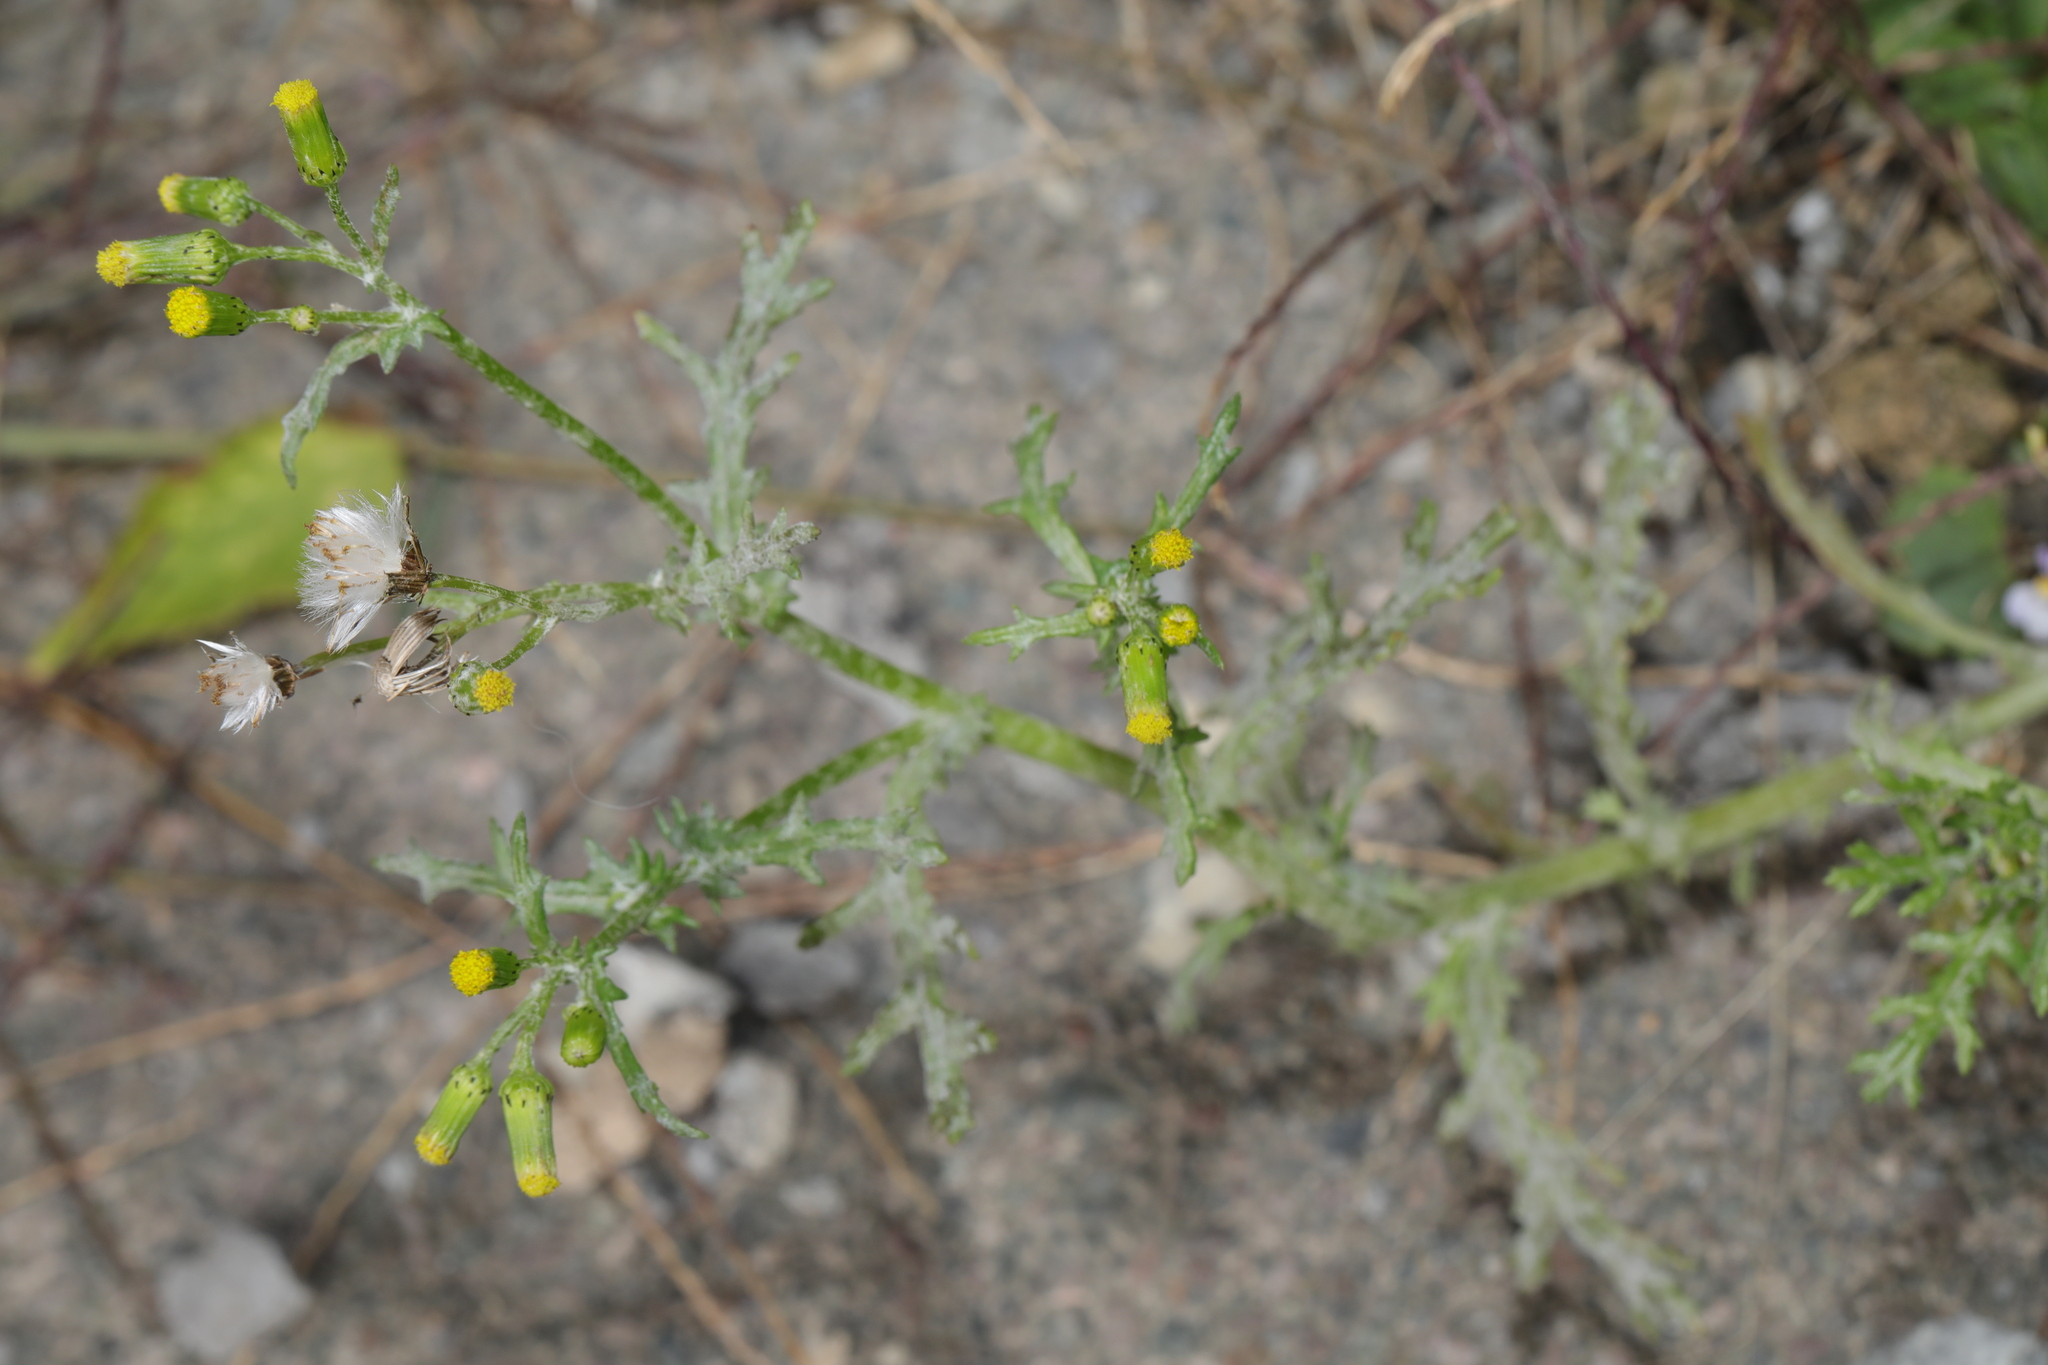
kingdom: Plantae
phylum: Tracheophyta
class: Magnoliopsida
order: Asterales
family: Asteraceae
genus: Senecio
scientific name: Senecio vulgaris
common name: Old-man-in-the-spring
